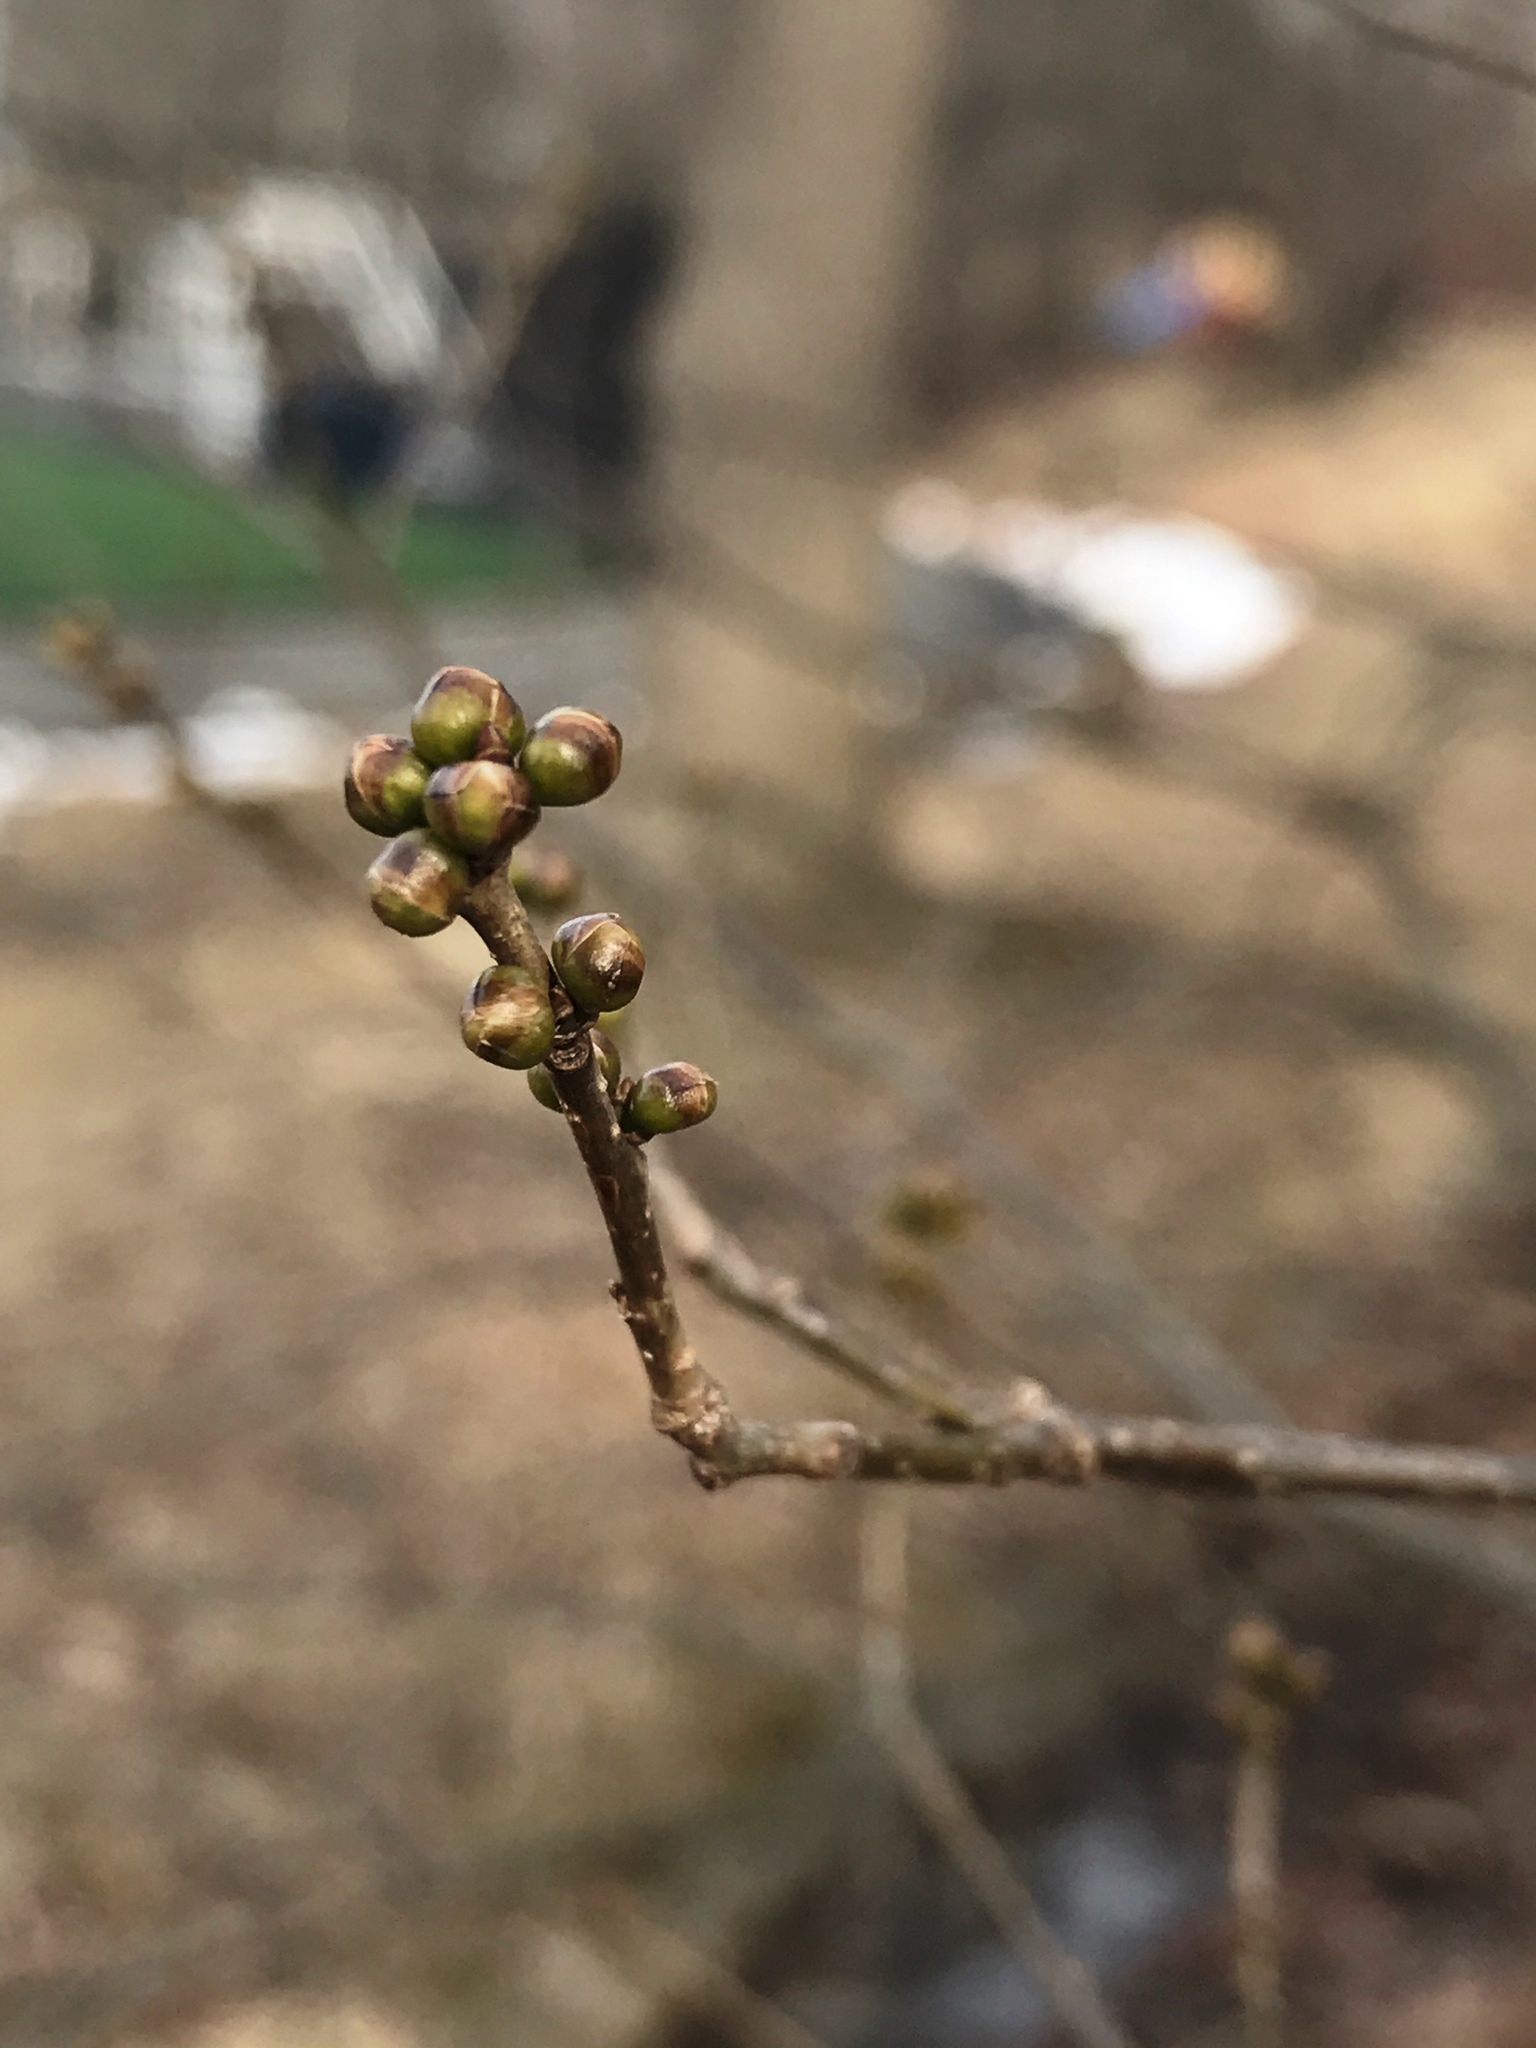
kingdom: Plantae
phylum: Tracheophyta
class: Magnoliopsida
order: Laurales
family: Lauraceae
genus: Lindera
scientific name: Lindera benzoin
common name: Spicebush
